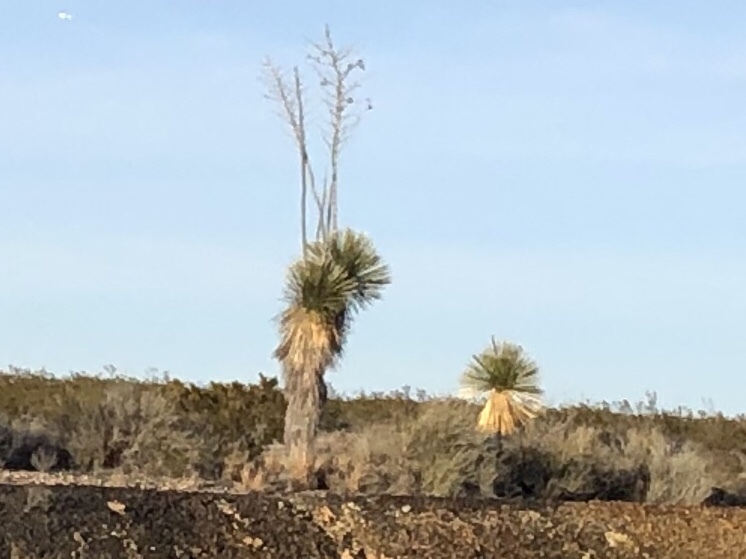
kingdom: Plantae
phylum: Tracheophyta
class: Liliopsida
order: Asparagales
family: Asparagaceae
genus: Yucca
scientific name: Yucca elata
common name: Palmella
